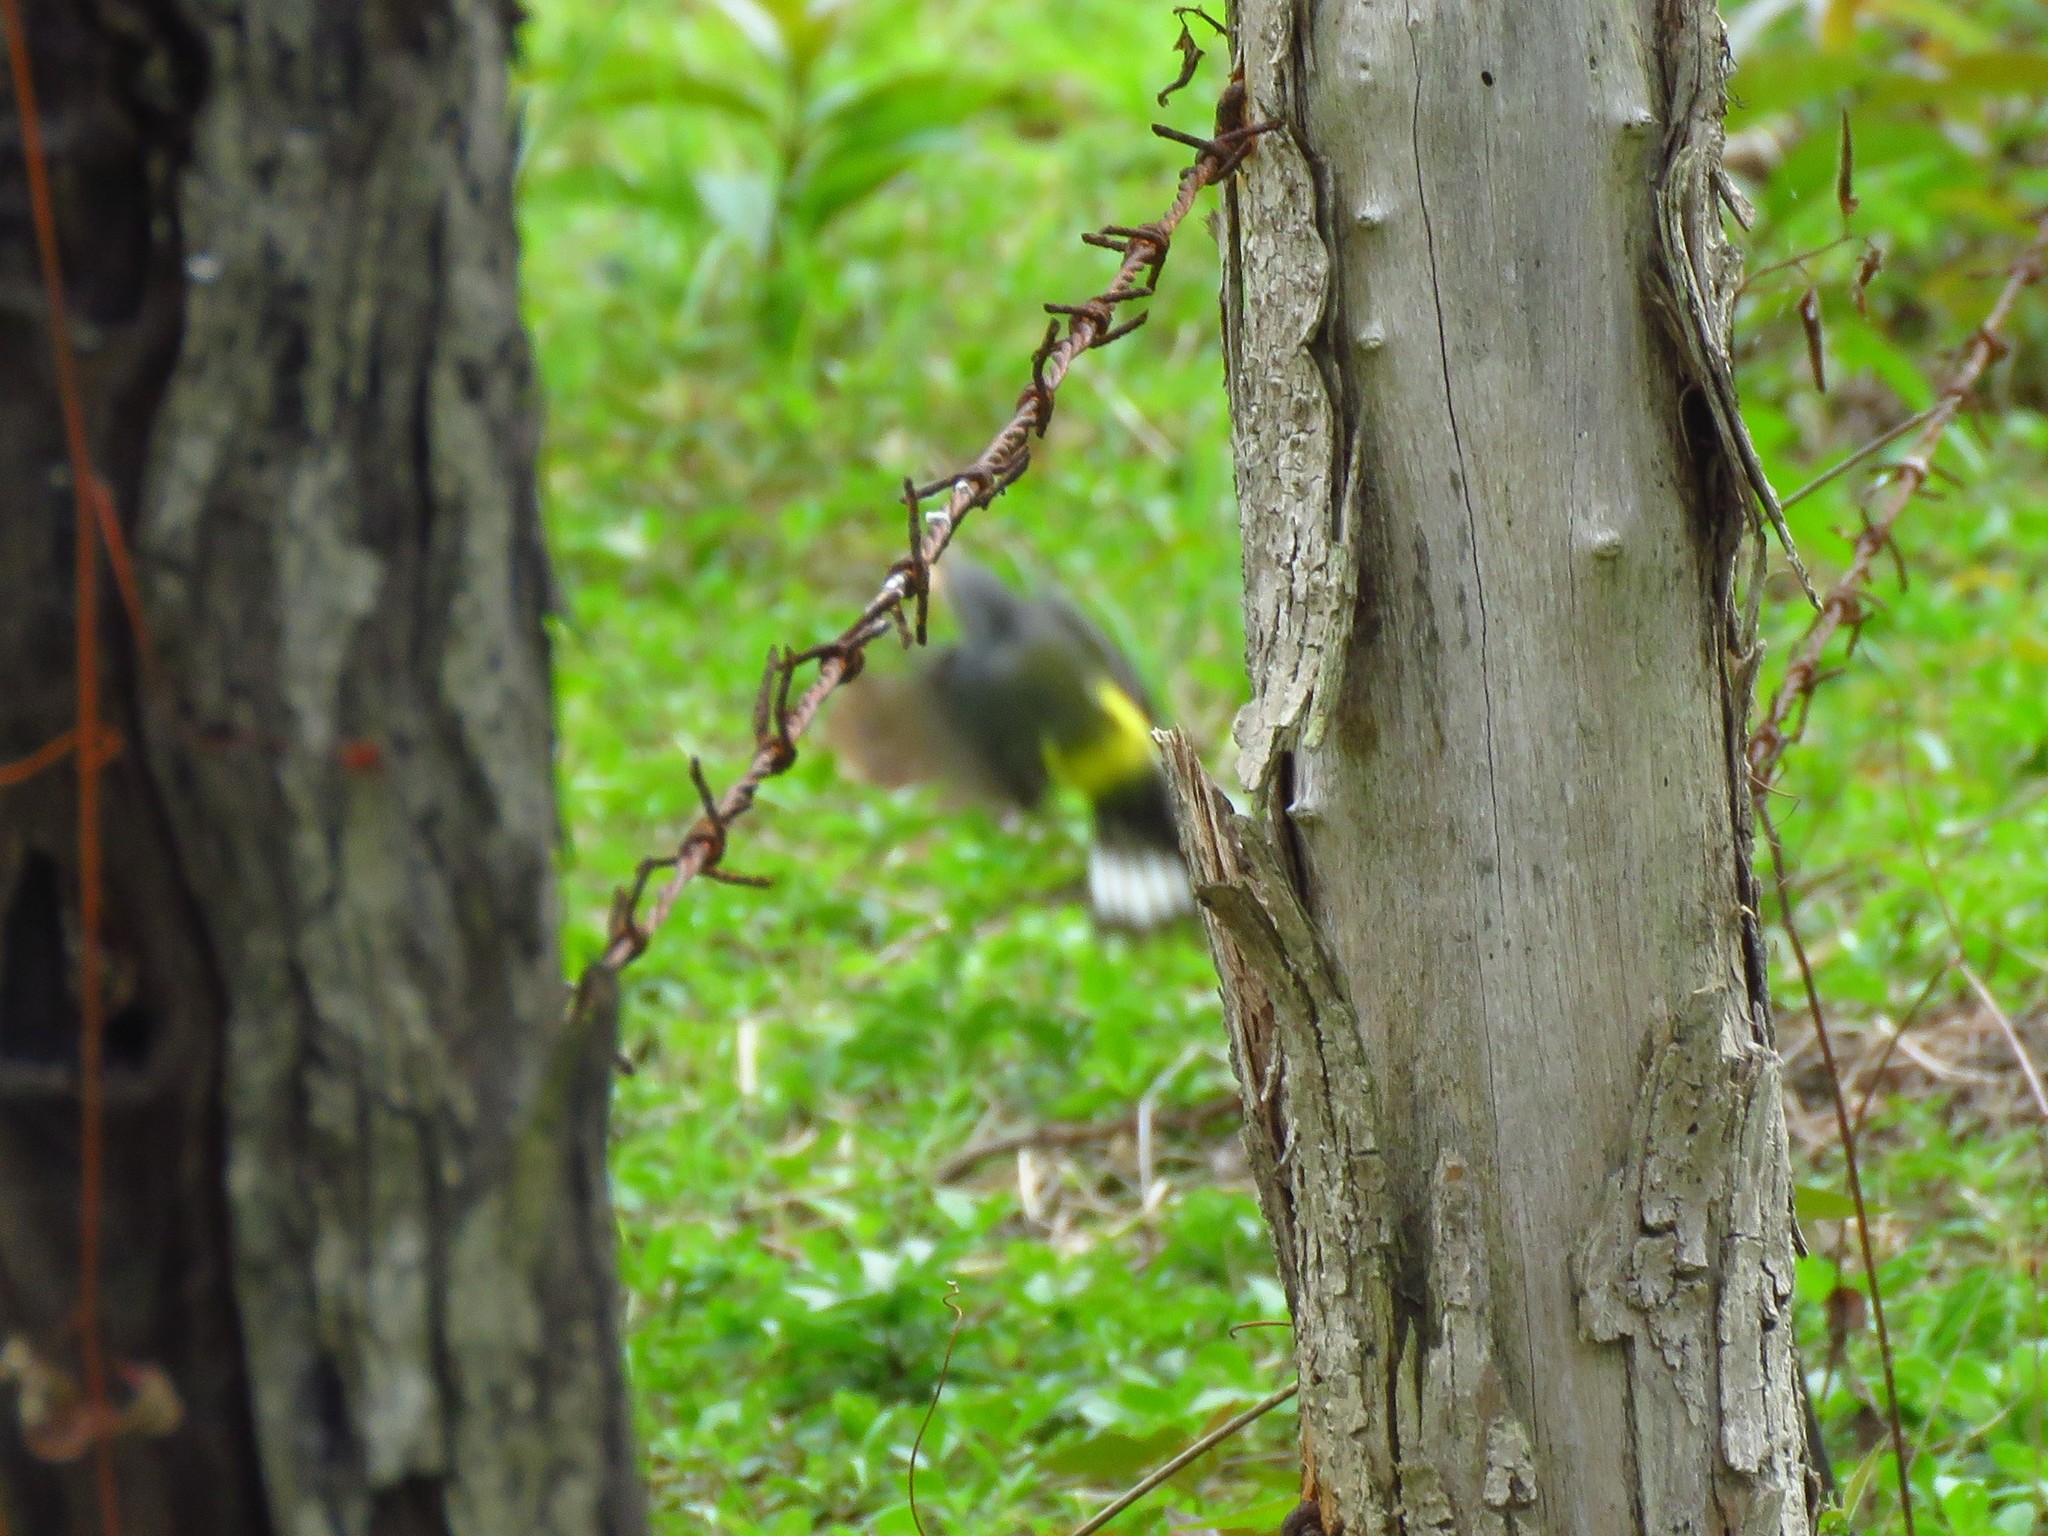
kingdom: Animalia
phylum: Chordata
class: Aves
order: Passeriformes
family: Parulidae
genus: Setophaga
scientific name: Setophaga magnolia
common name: Magnolia warbler
